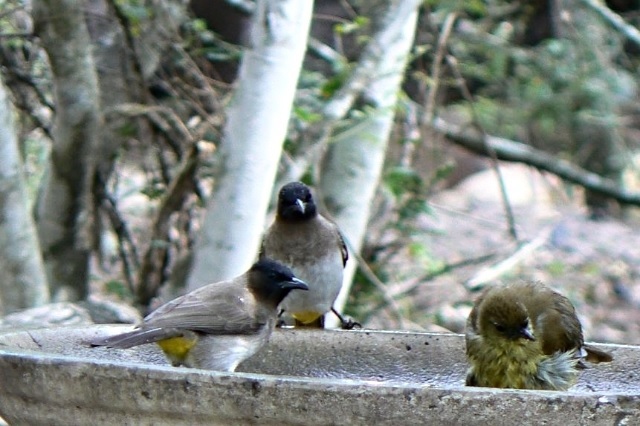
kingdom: Animalia
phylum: Chordata
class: Aves
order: Passeriformes
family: Pycnonotidae
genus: Pycnonotus
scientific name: Pycnonotus barbatus
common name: Common bulbul
